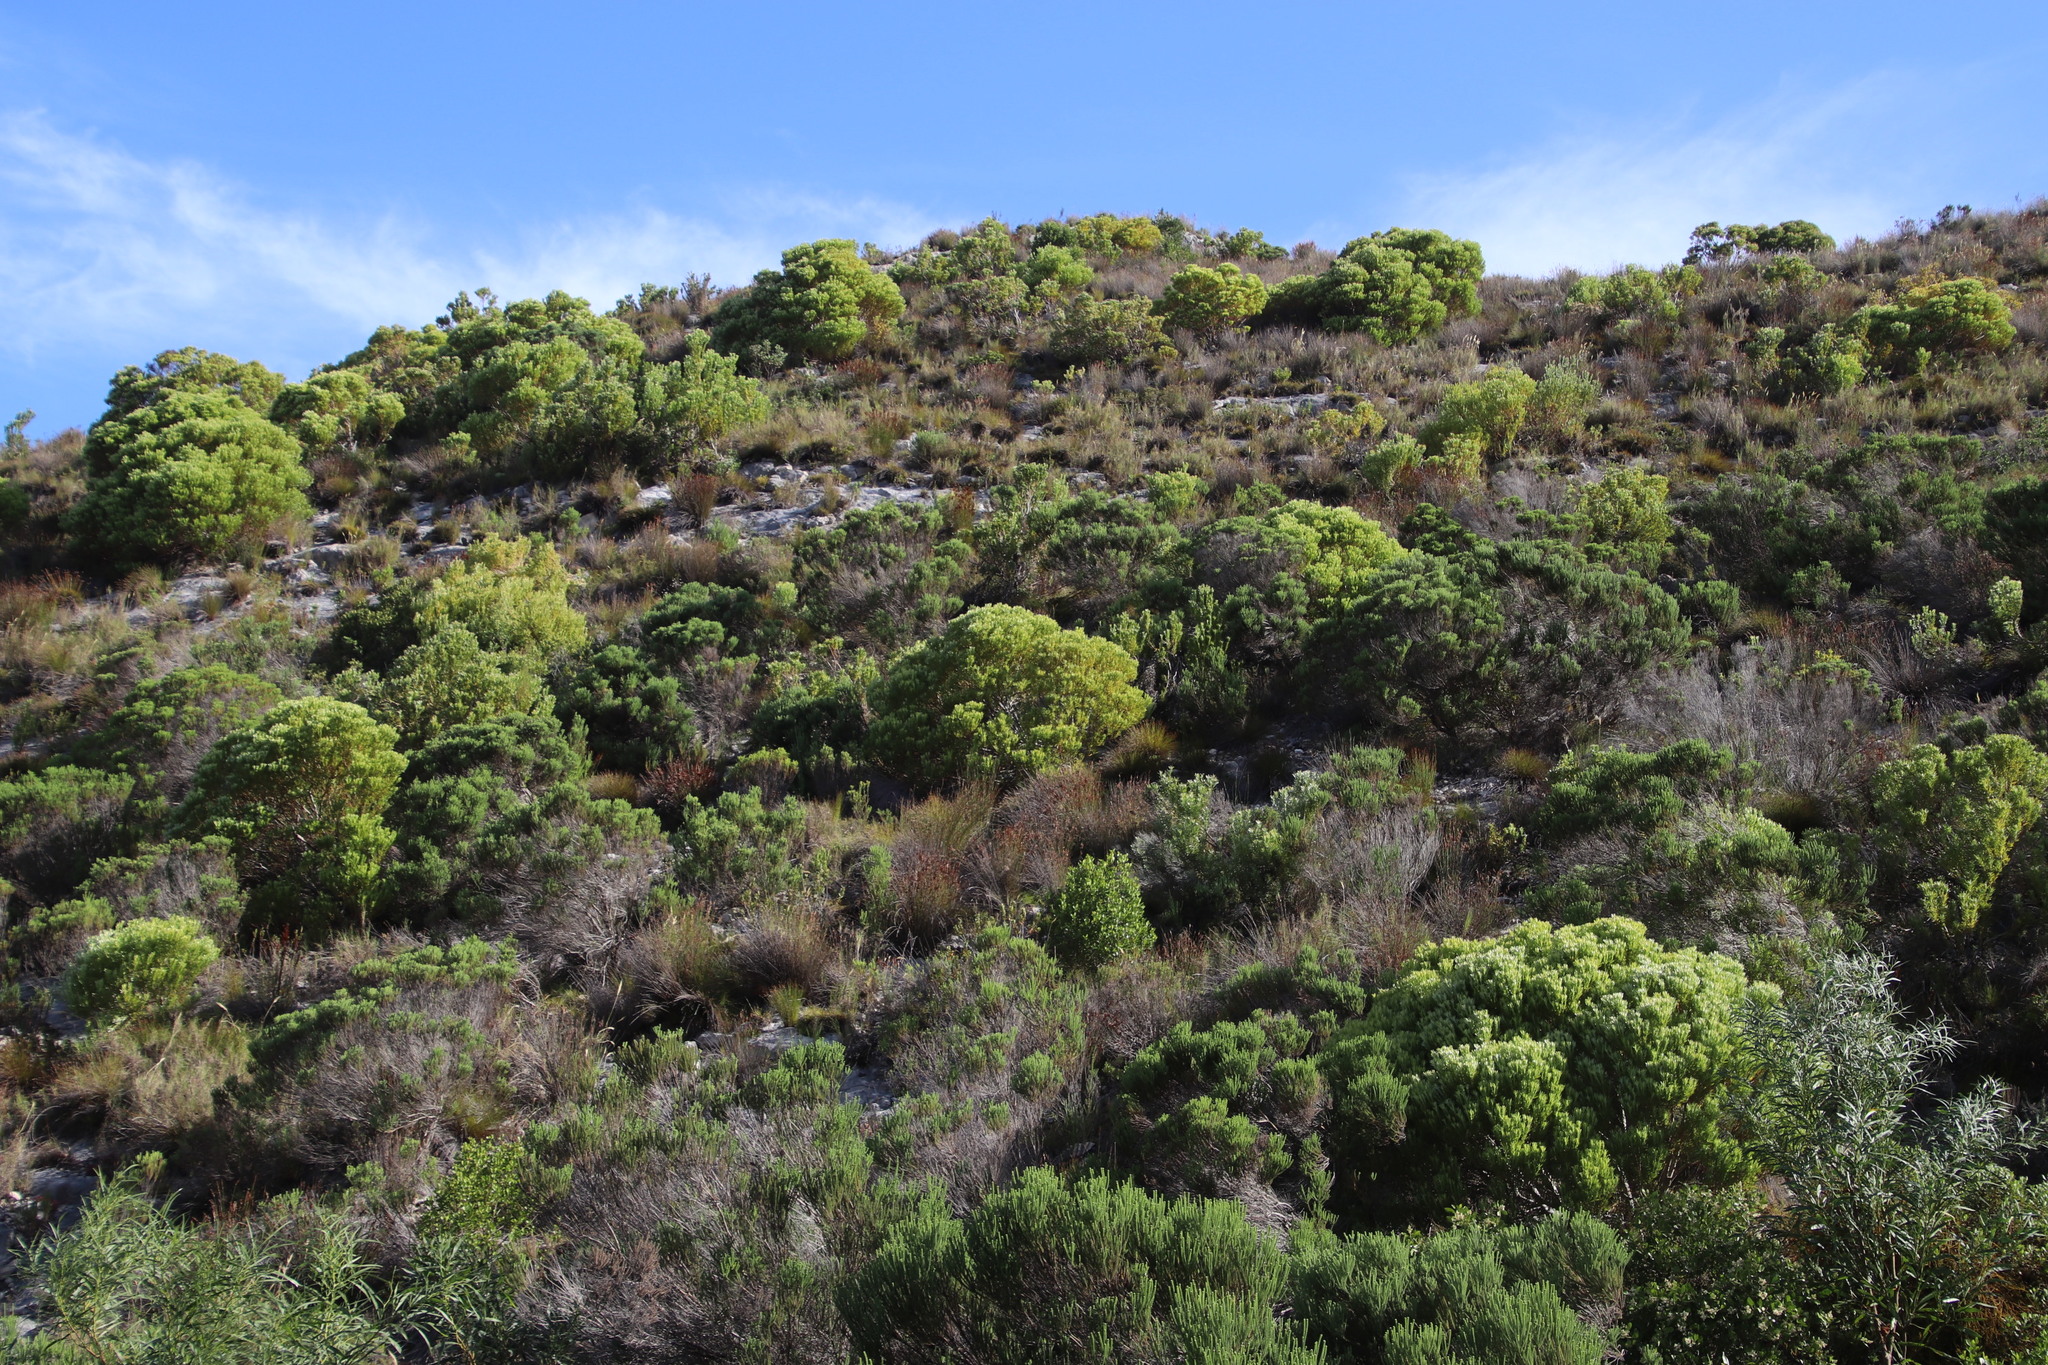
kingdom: Plantae
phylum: Tracheophyta
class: Magnoliopsida
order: Proteales
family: Proteaceae
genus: Leucadendron
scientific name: Leucadendron meridianum
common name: Limestone conebush
